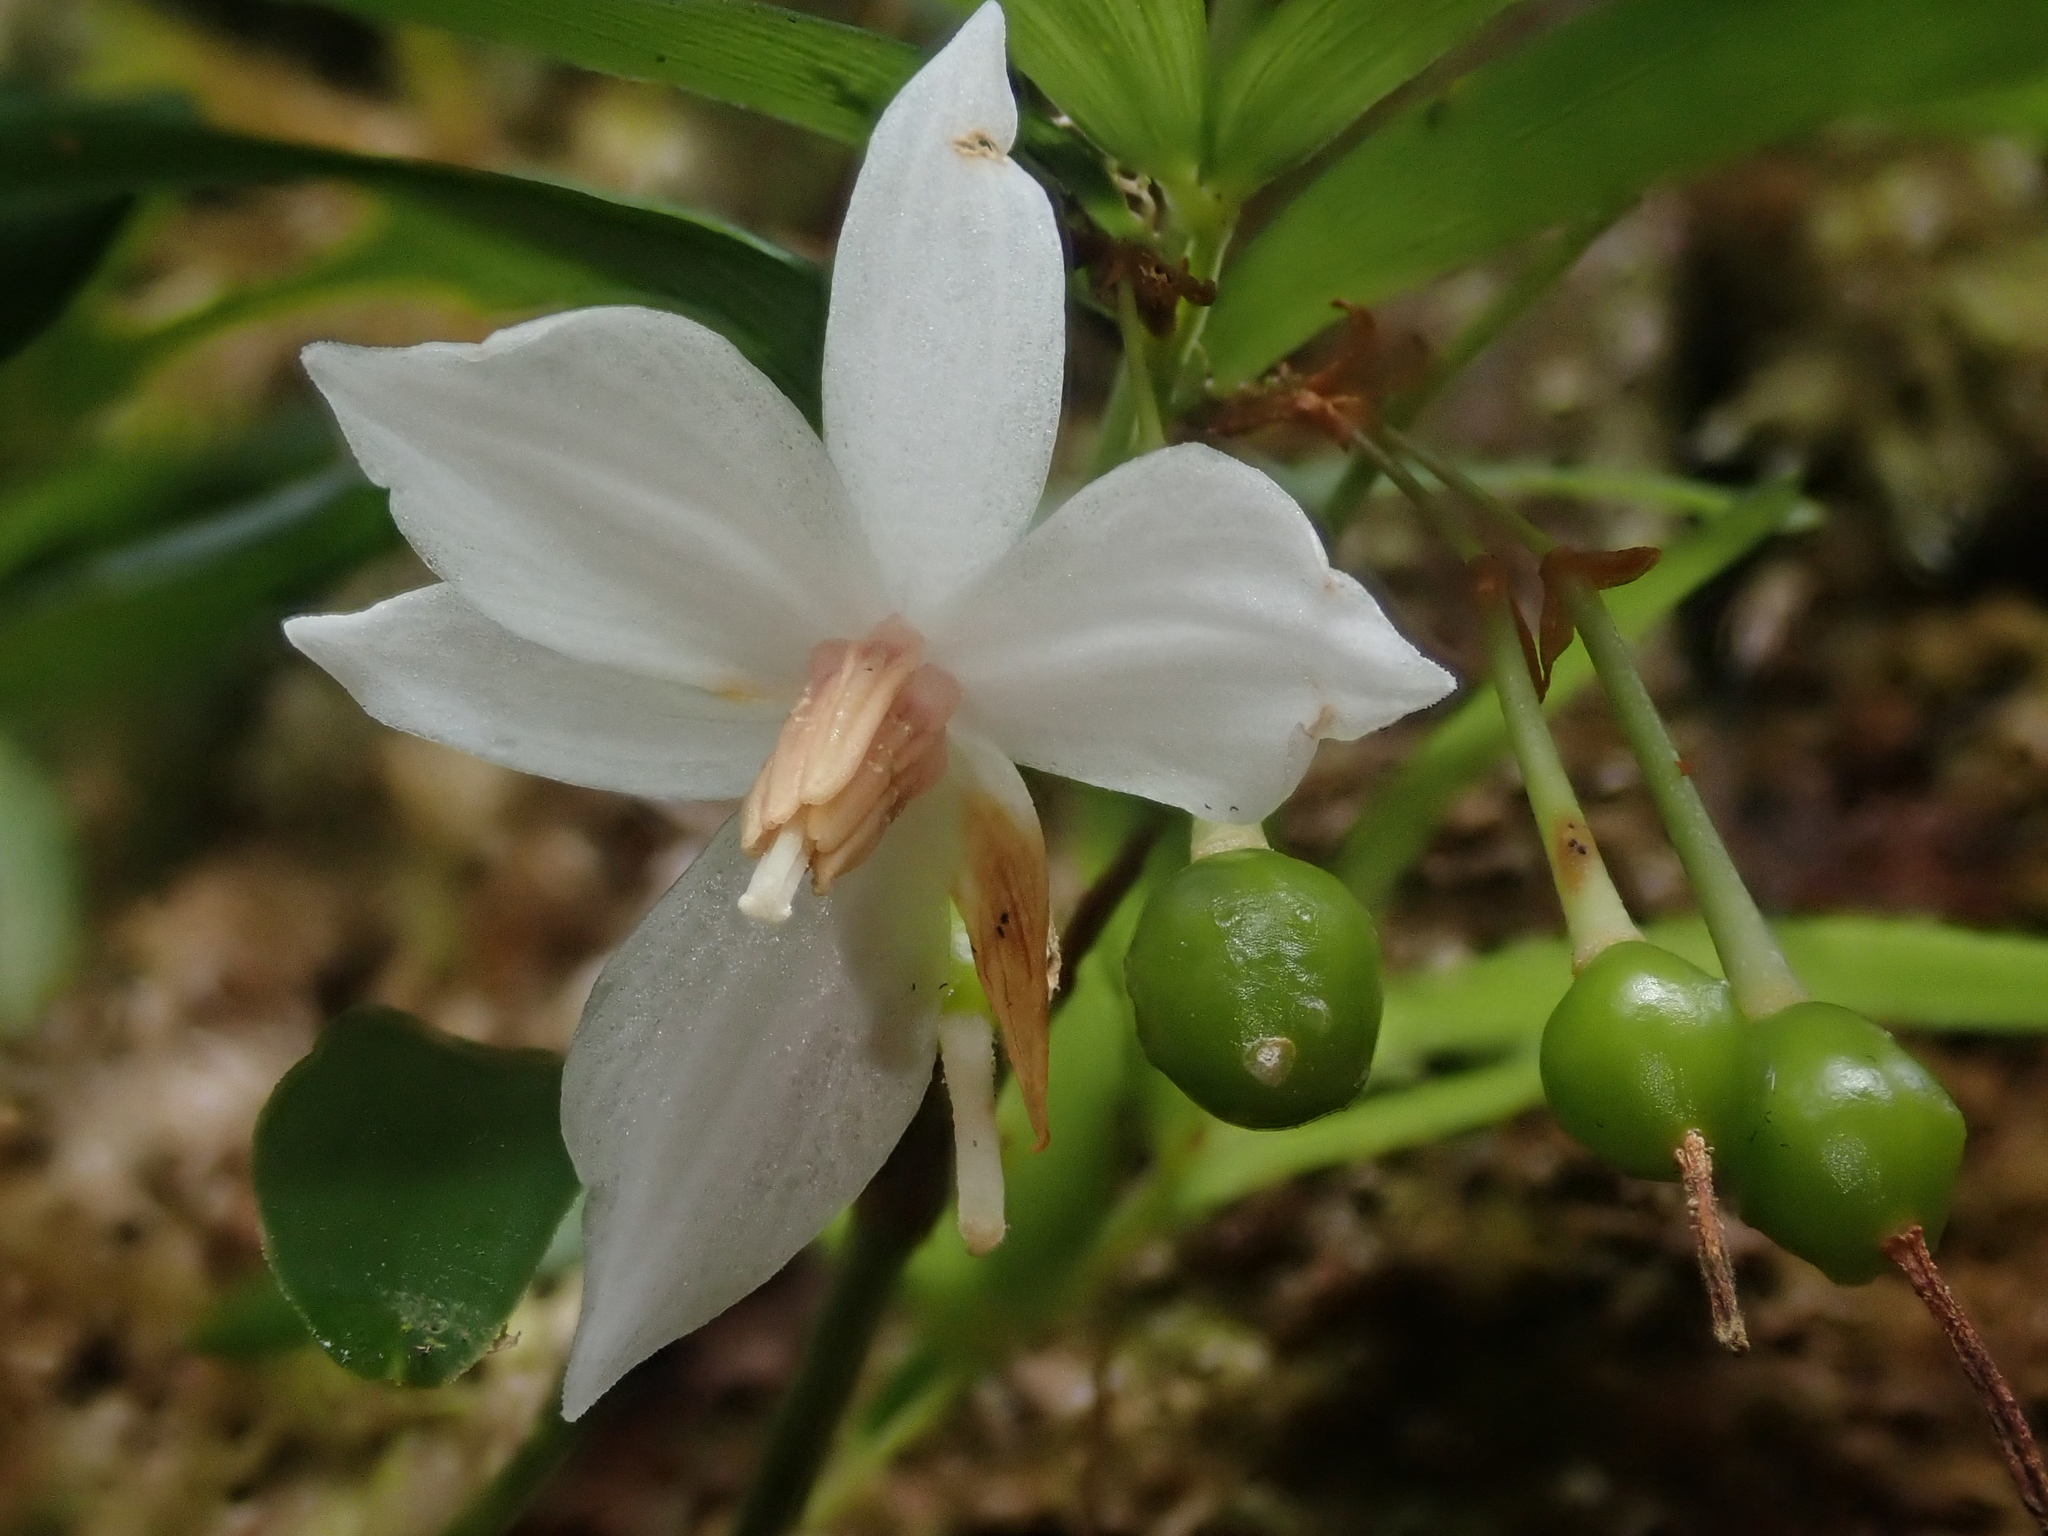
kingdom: Plantae
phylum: Tracheophyta
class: Liliopsida
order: Liliales
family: Alstroemeriaceae
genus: Luzuriaga
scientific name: Luzuriaga radicans
